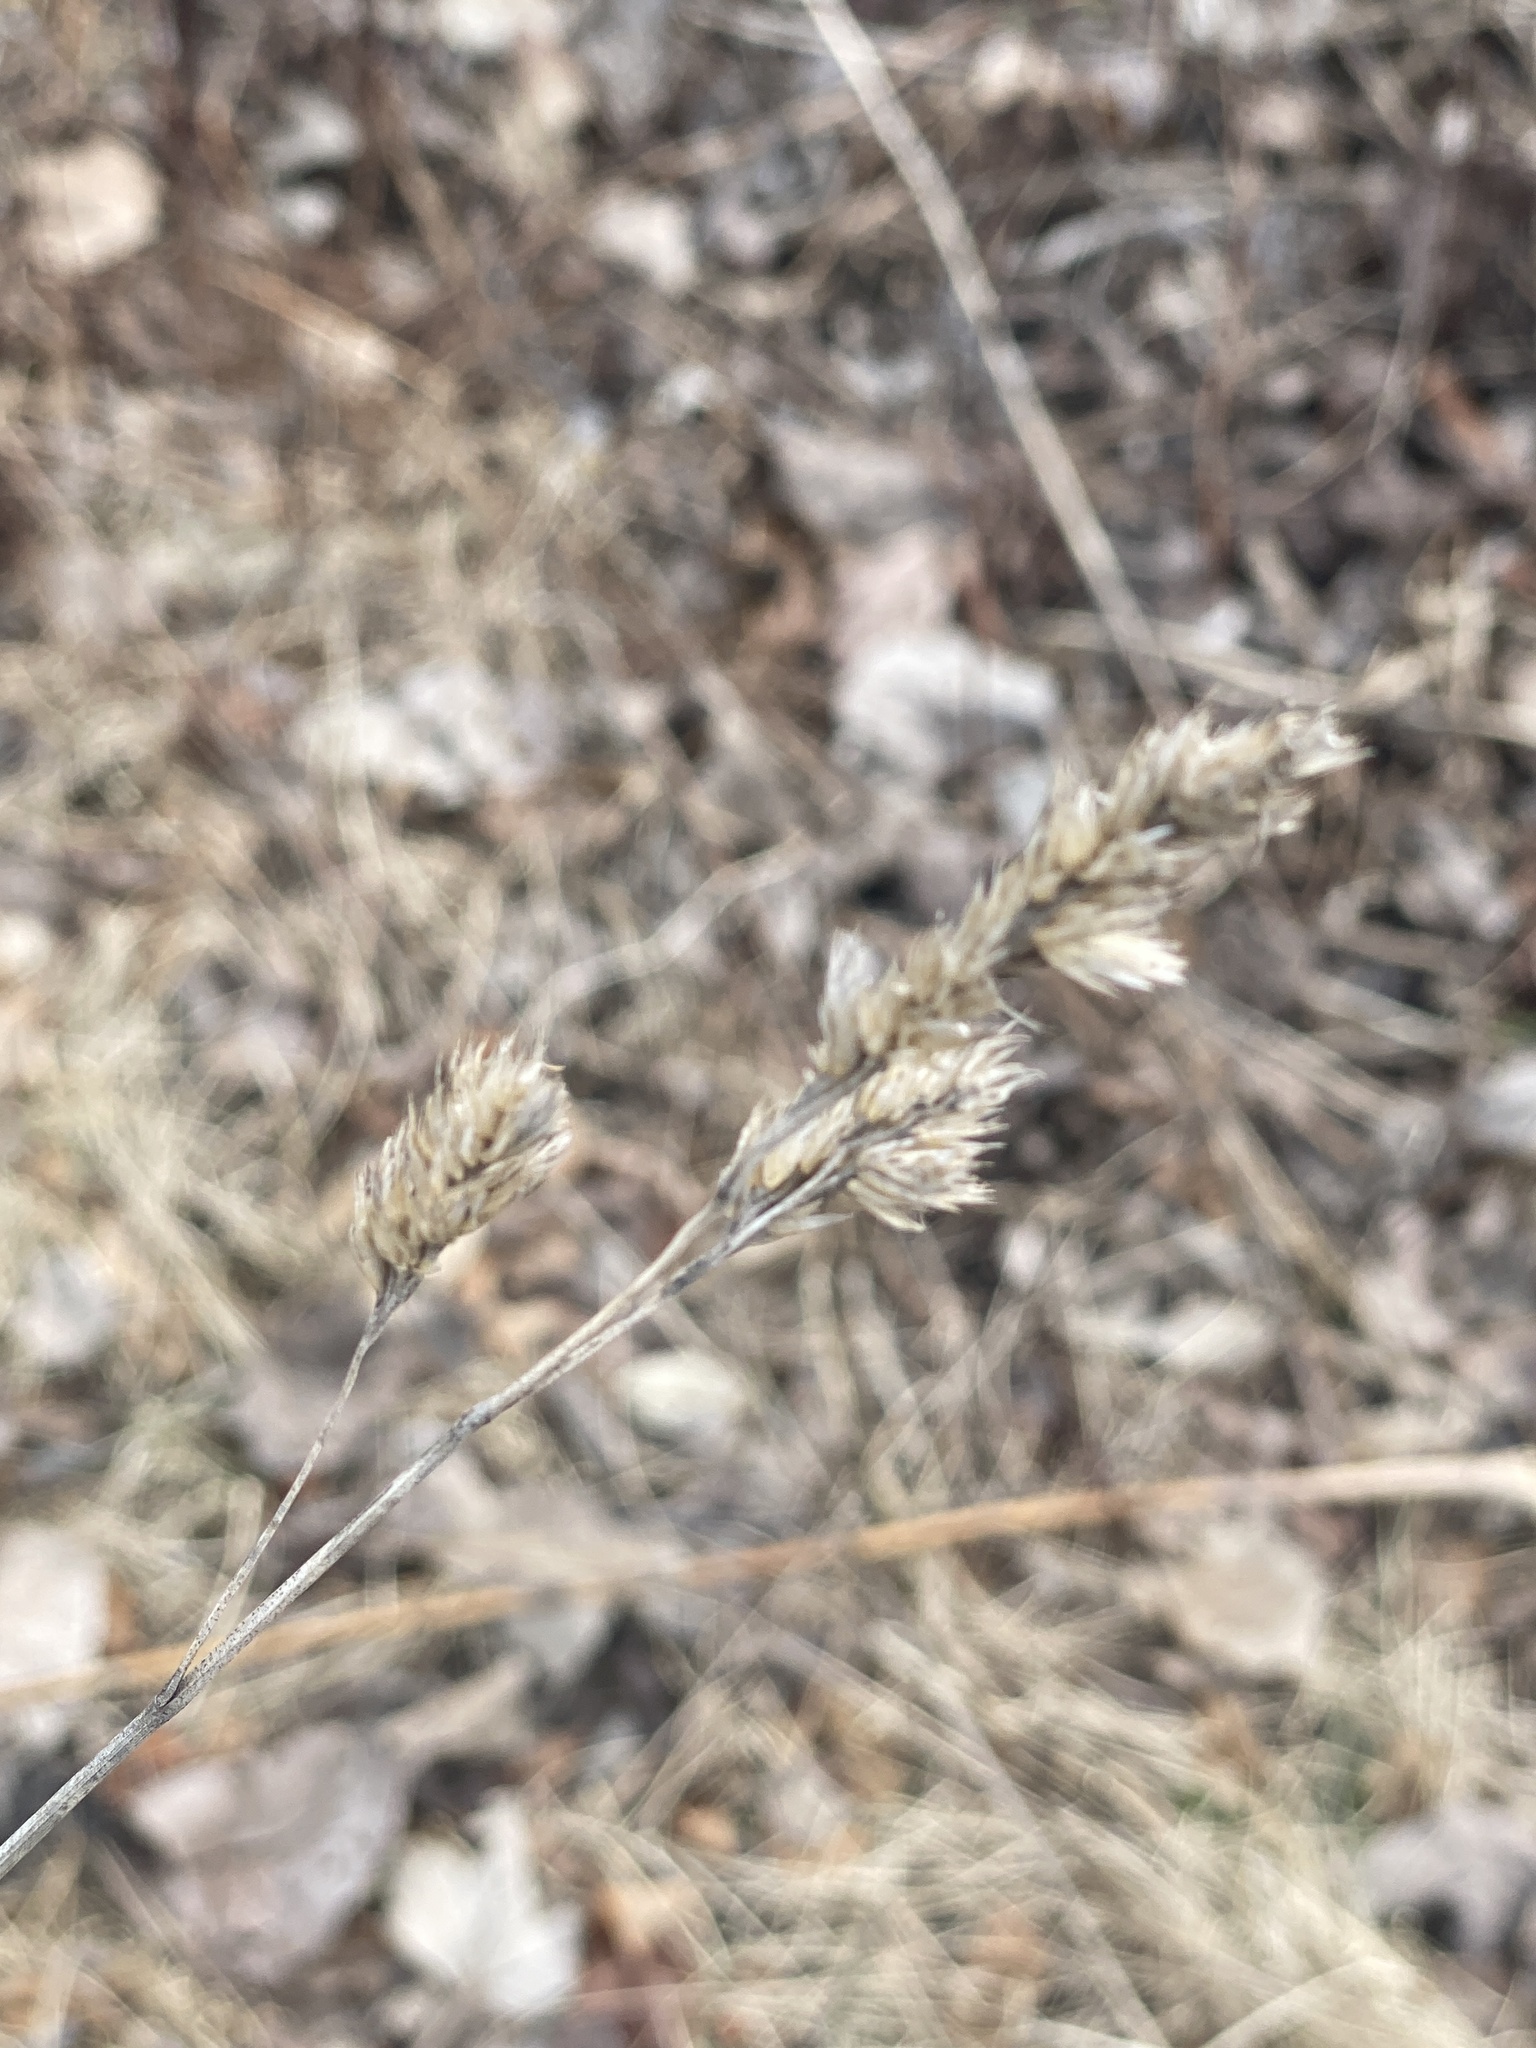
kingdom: Plantae
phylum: Tracheophyta
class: Liliopsida
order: Poales
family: Poaceae
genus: Dactylis
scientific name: Dactylis glomerata
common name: Orchardgrass
